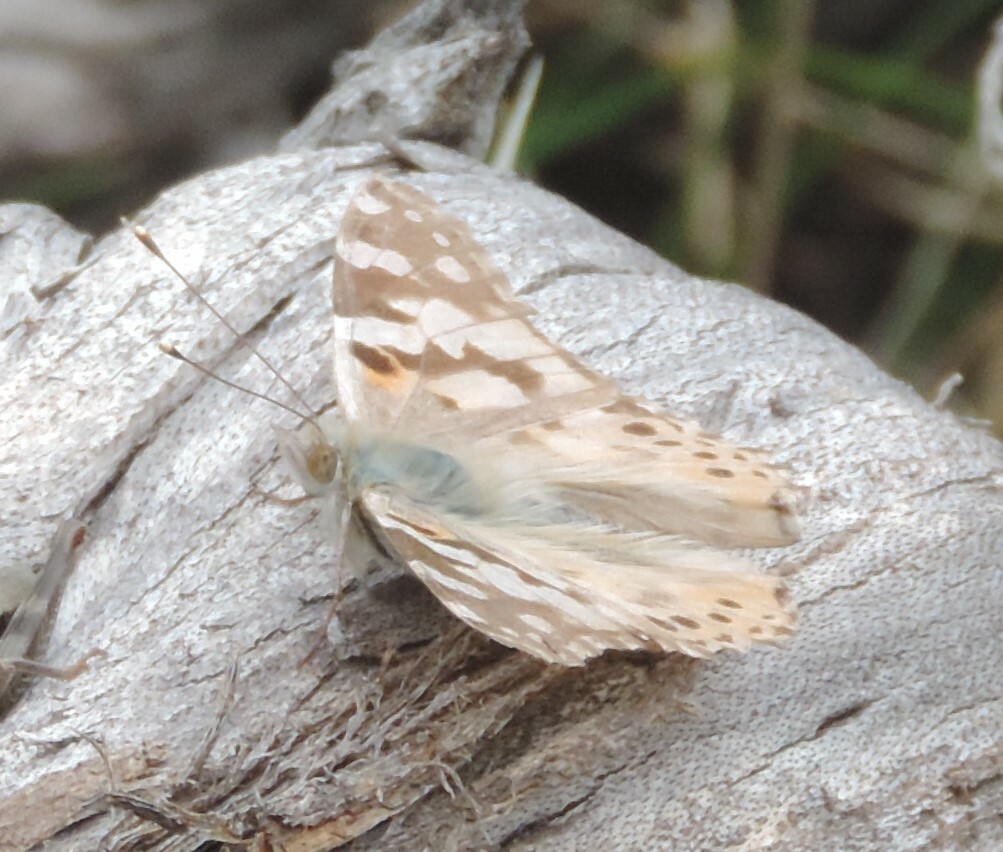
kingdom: Animalia
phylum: Arthropoda
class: Insecta
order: Lepidoptera
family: Nymphalidae
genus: Vanessa
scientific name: Vanessa cardui
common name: Painted lady
